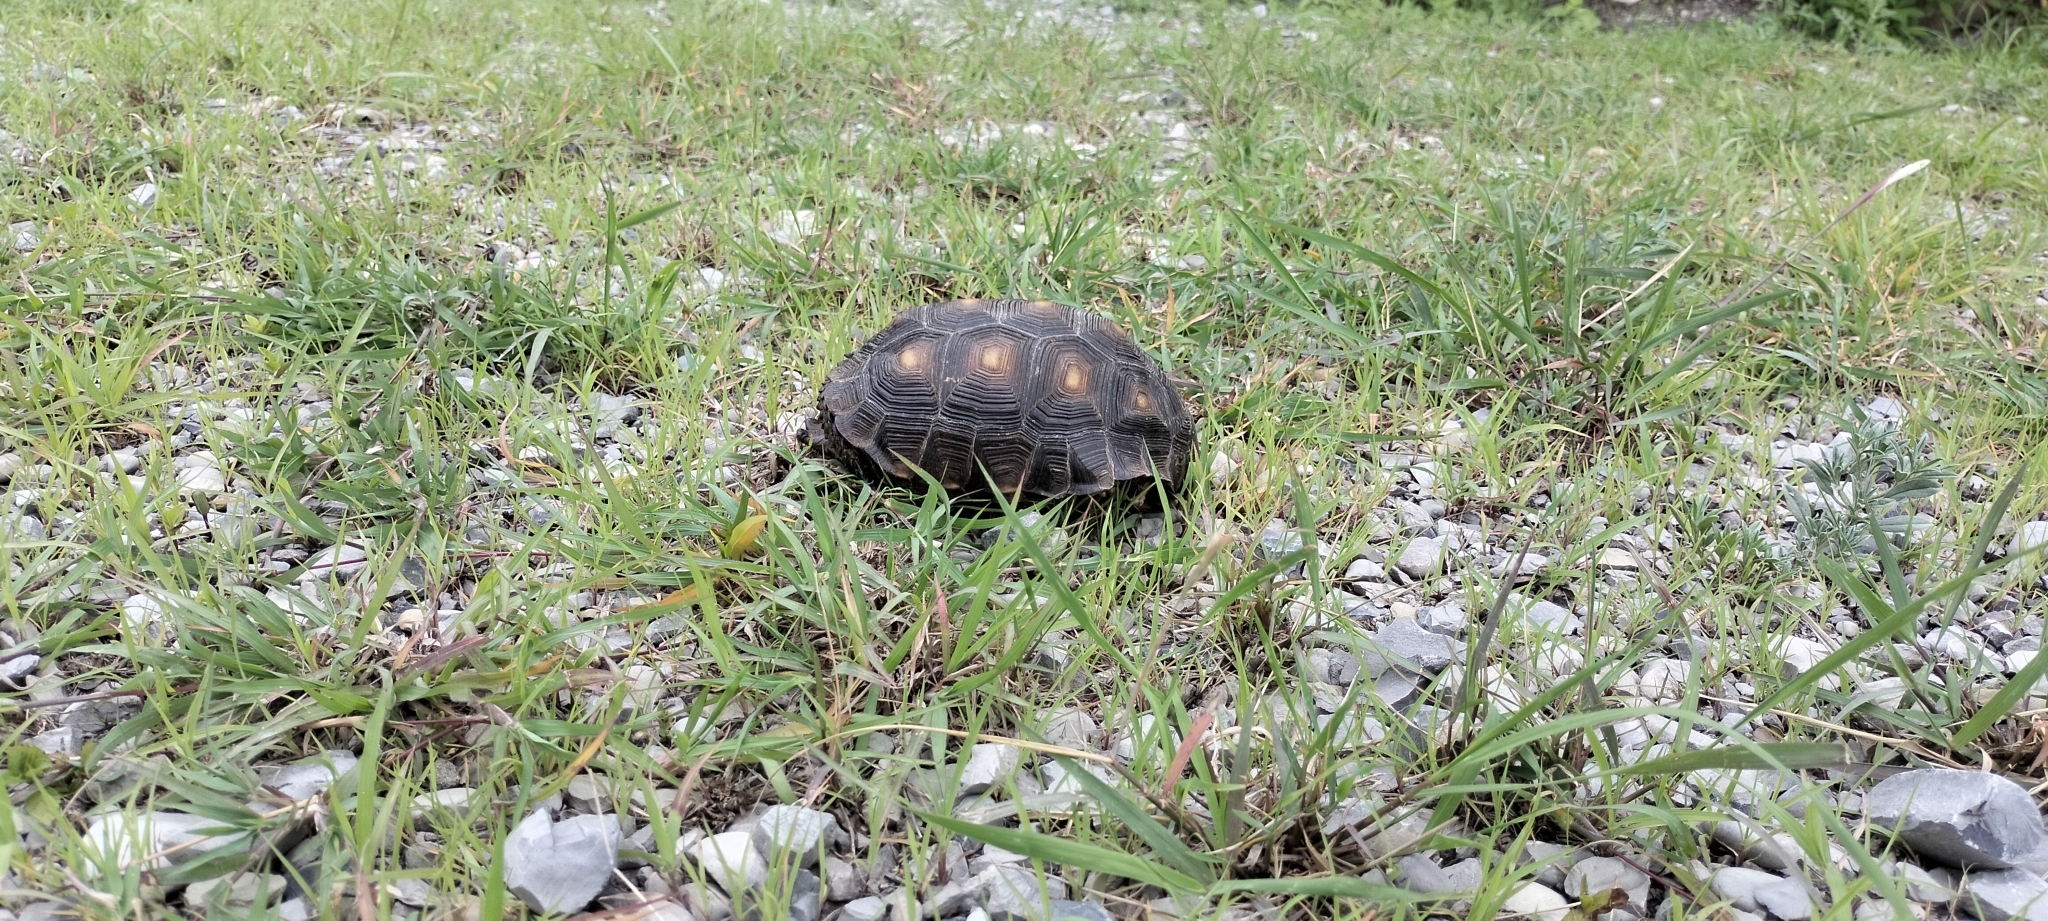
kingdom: Animalia
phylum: Chordata
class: Testudines
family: Testudinidae
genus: Gopherus
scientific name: Gopherus berlandieri
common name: Texas (gopher )tortoise
